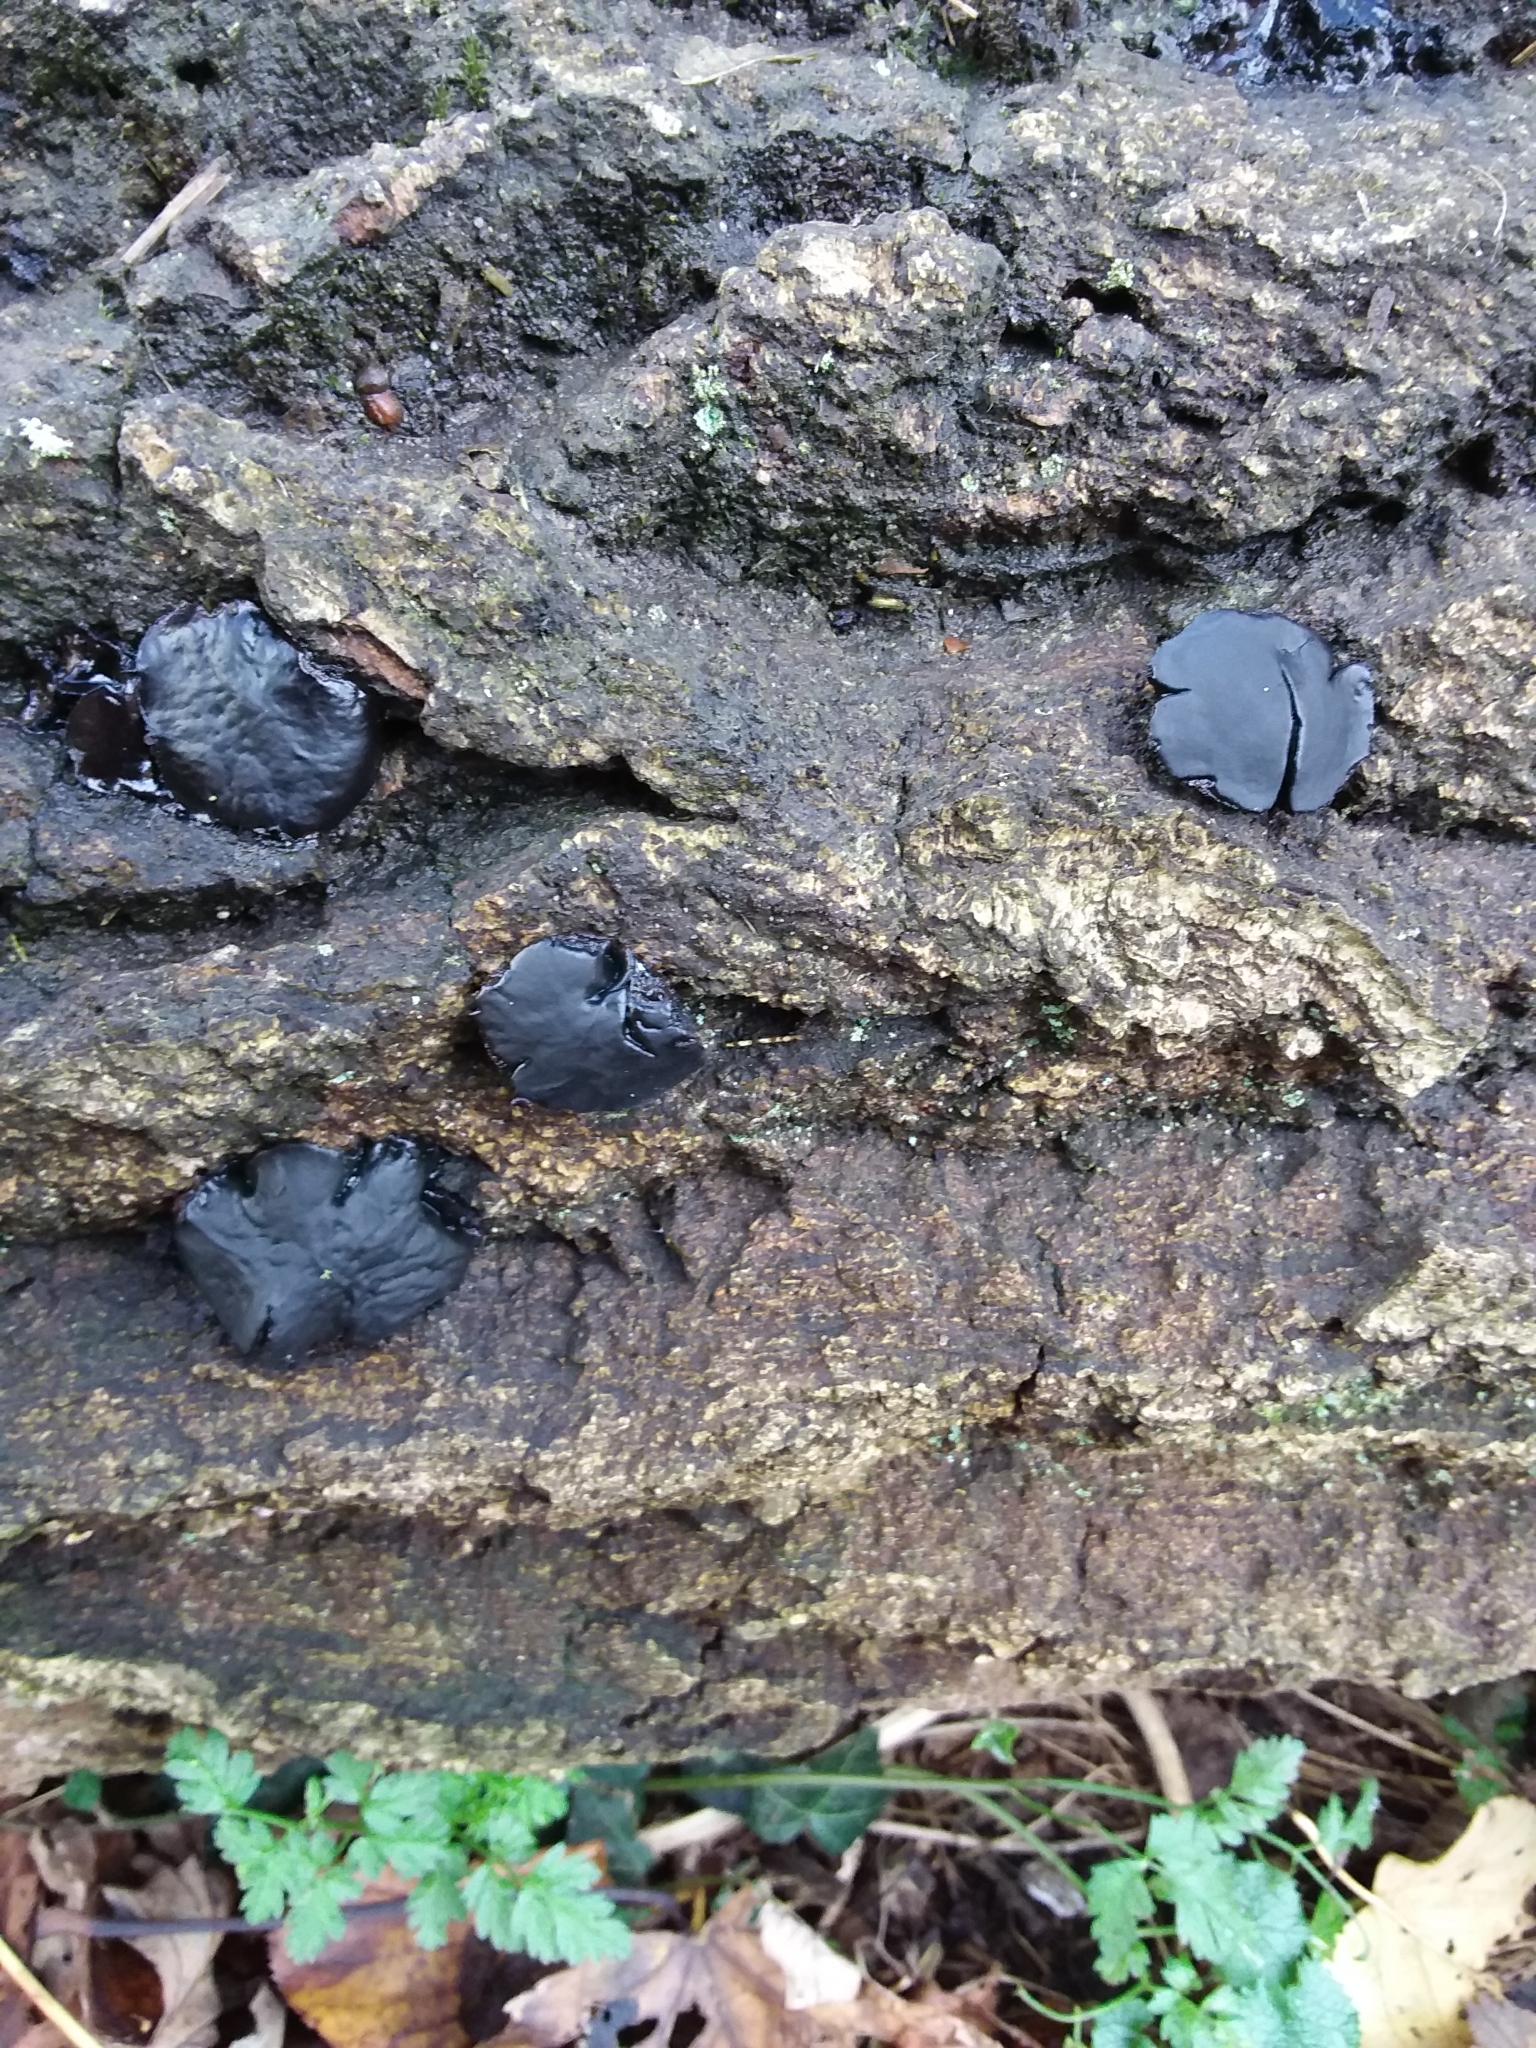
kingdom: Fungi
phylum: Ascomycota
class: Leotiomycetes
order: Phacidiales
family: Phacidiaceae
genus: Bulgaria
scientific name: Bulgaria inquinans
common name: Black bulgar
